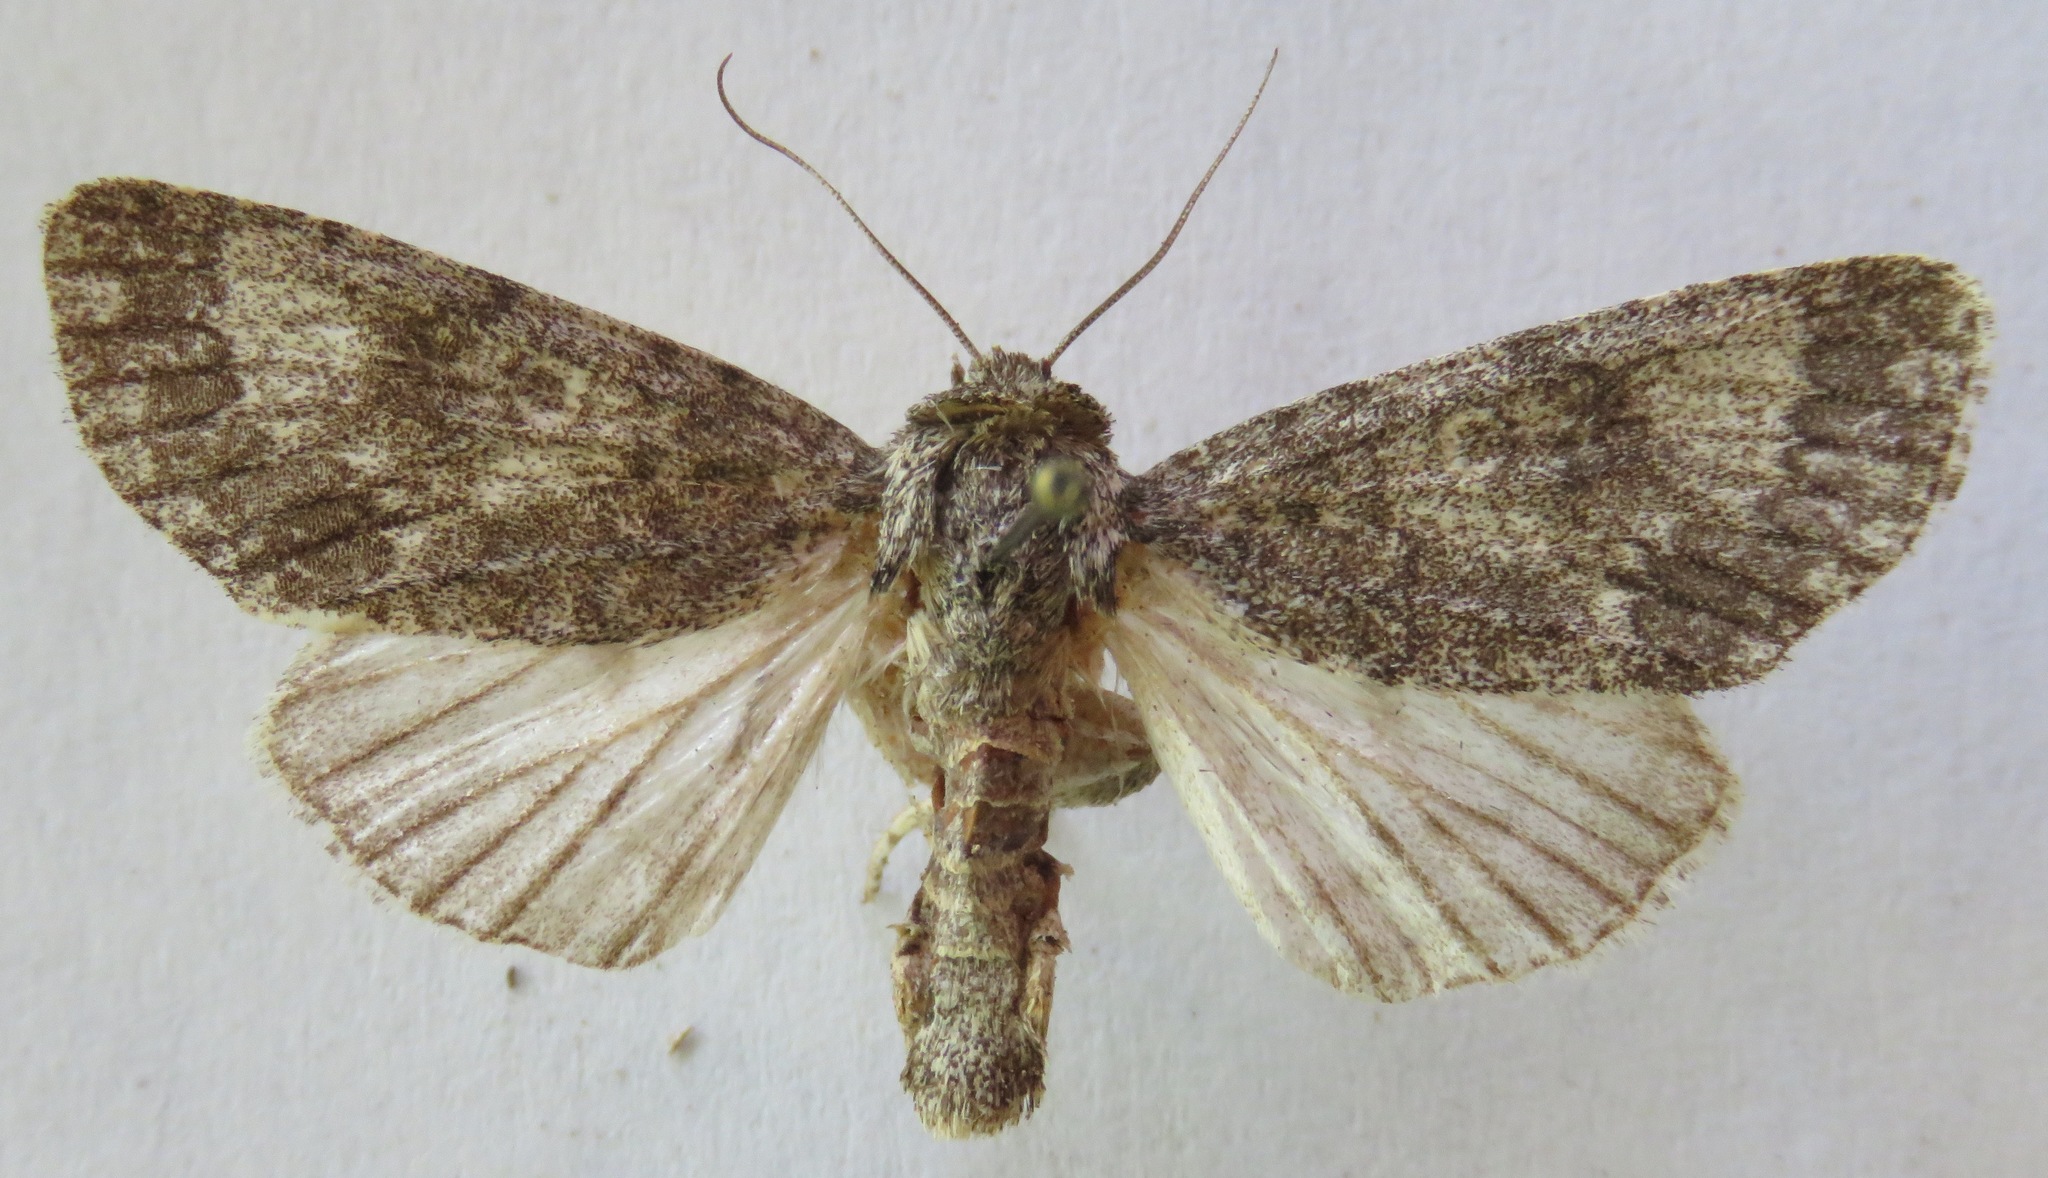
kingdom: Animalia
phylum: Arthropoda
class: Insecta
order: Lepidoptera
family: Noctuidae
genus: Acronicta
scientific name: Acronicta megacephala
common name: Poplar grey
